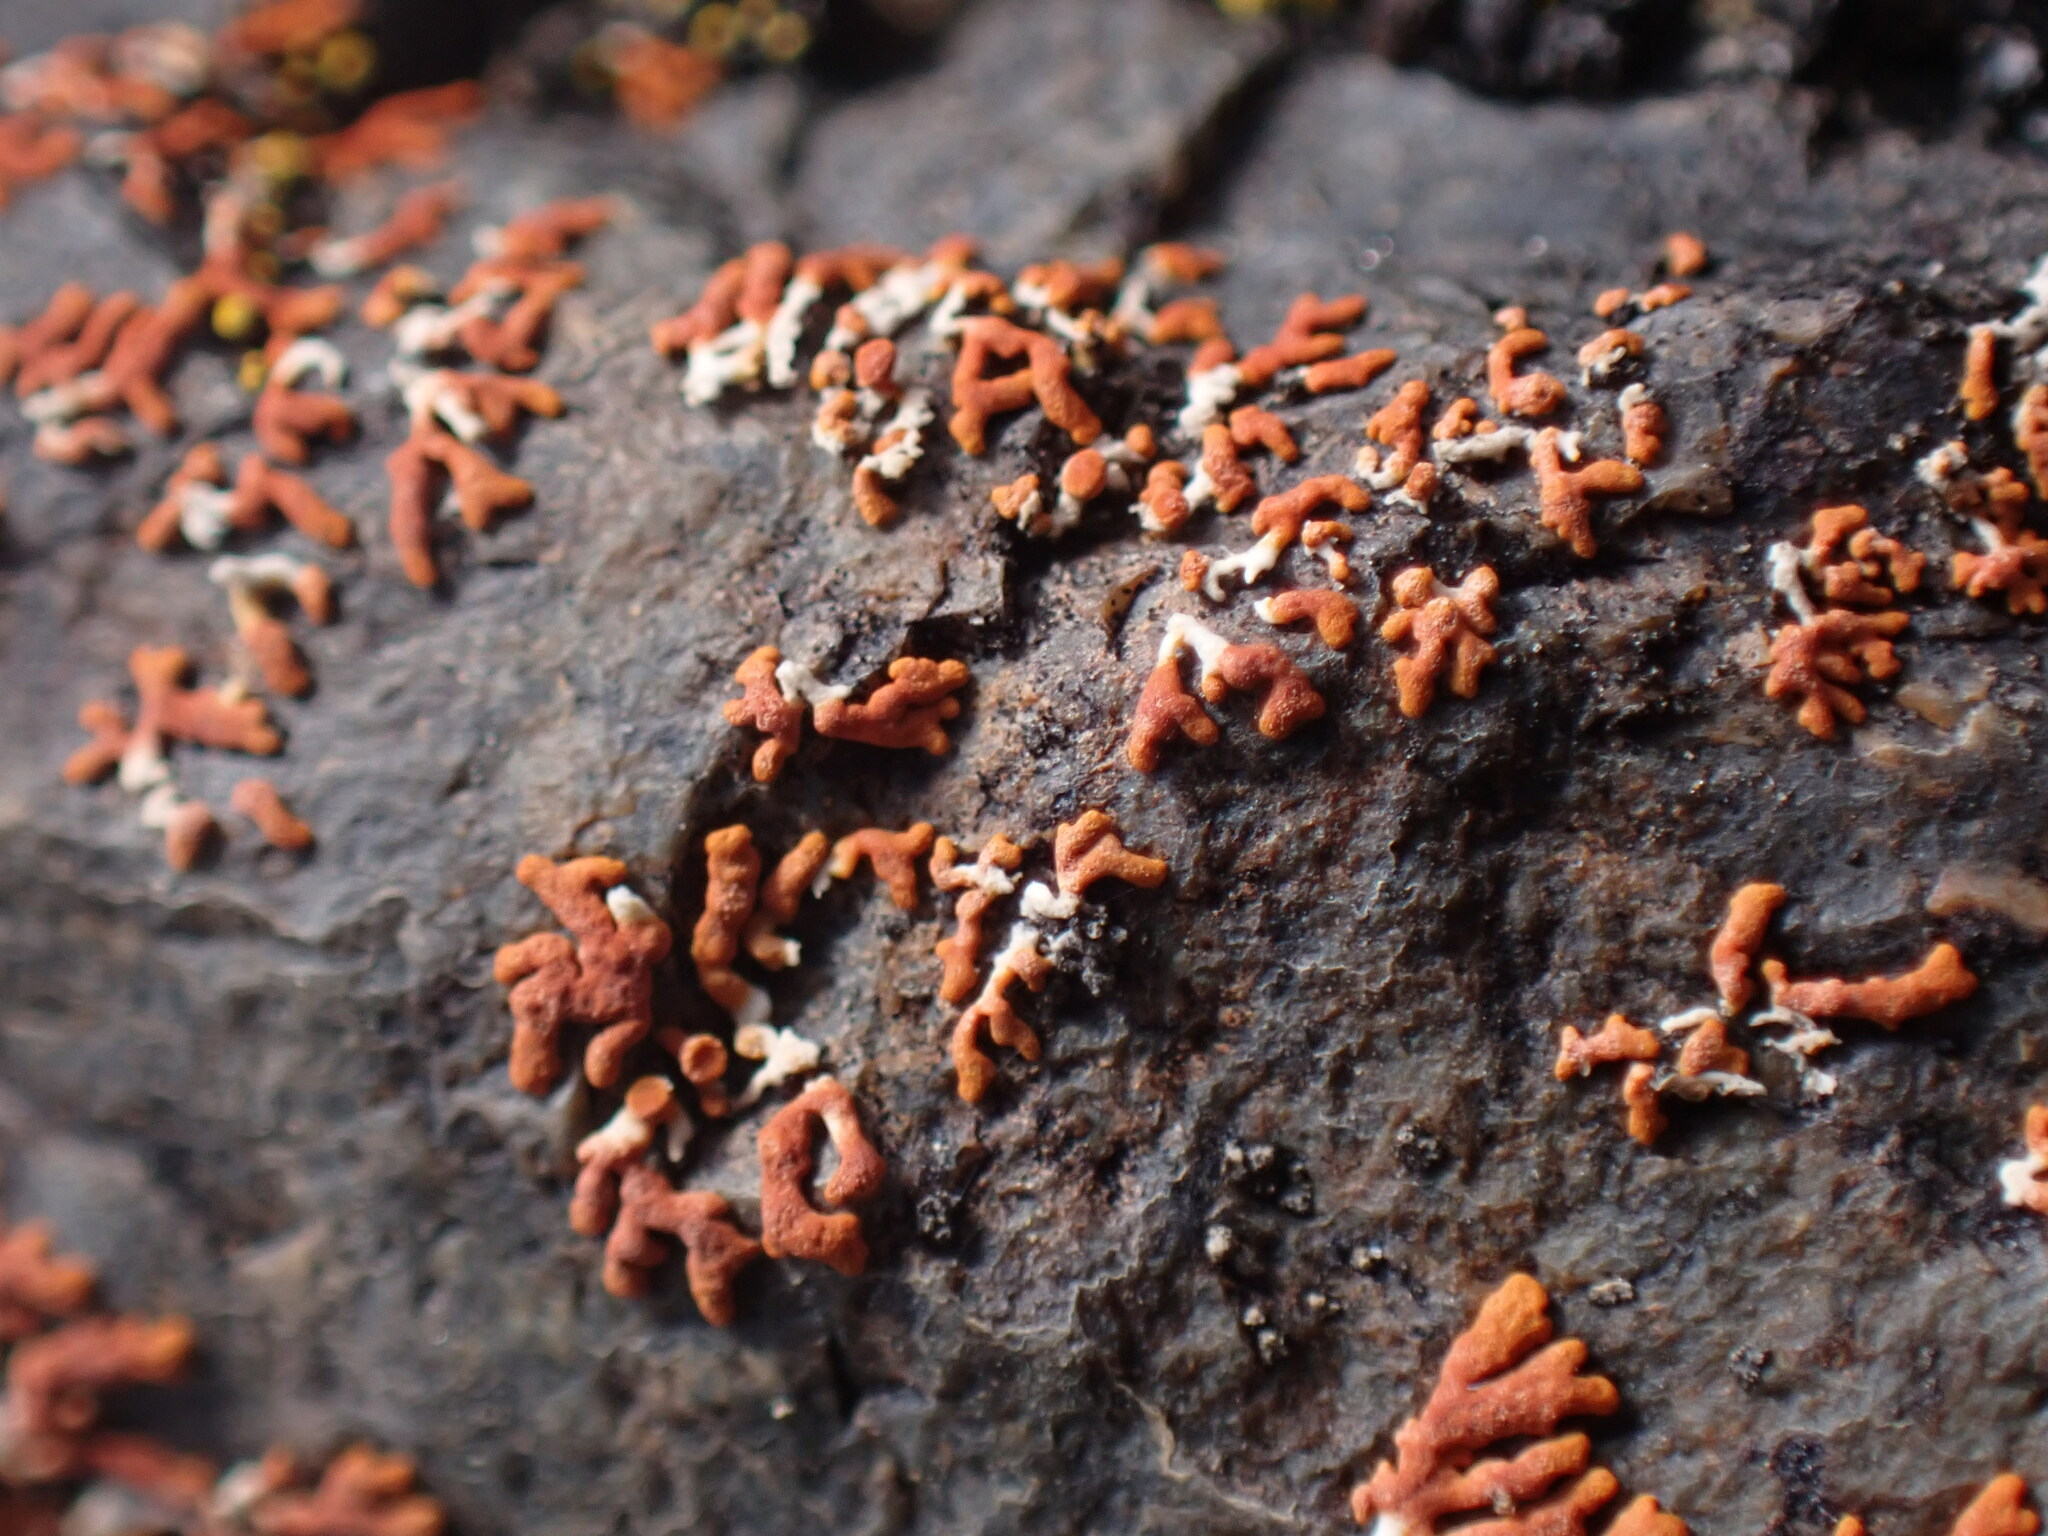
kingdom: Fungi
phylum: Ascomycota
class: Lecanoromycetes
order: Teloschistales
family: Teloschistaceae
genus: Xanthoria
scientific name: Xanthoria elegans
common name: Elegant sunburst lichen
